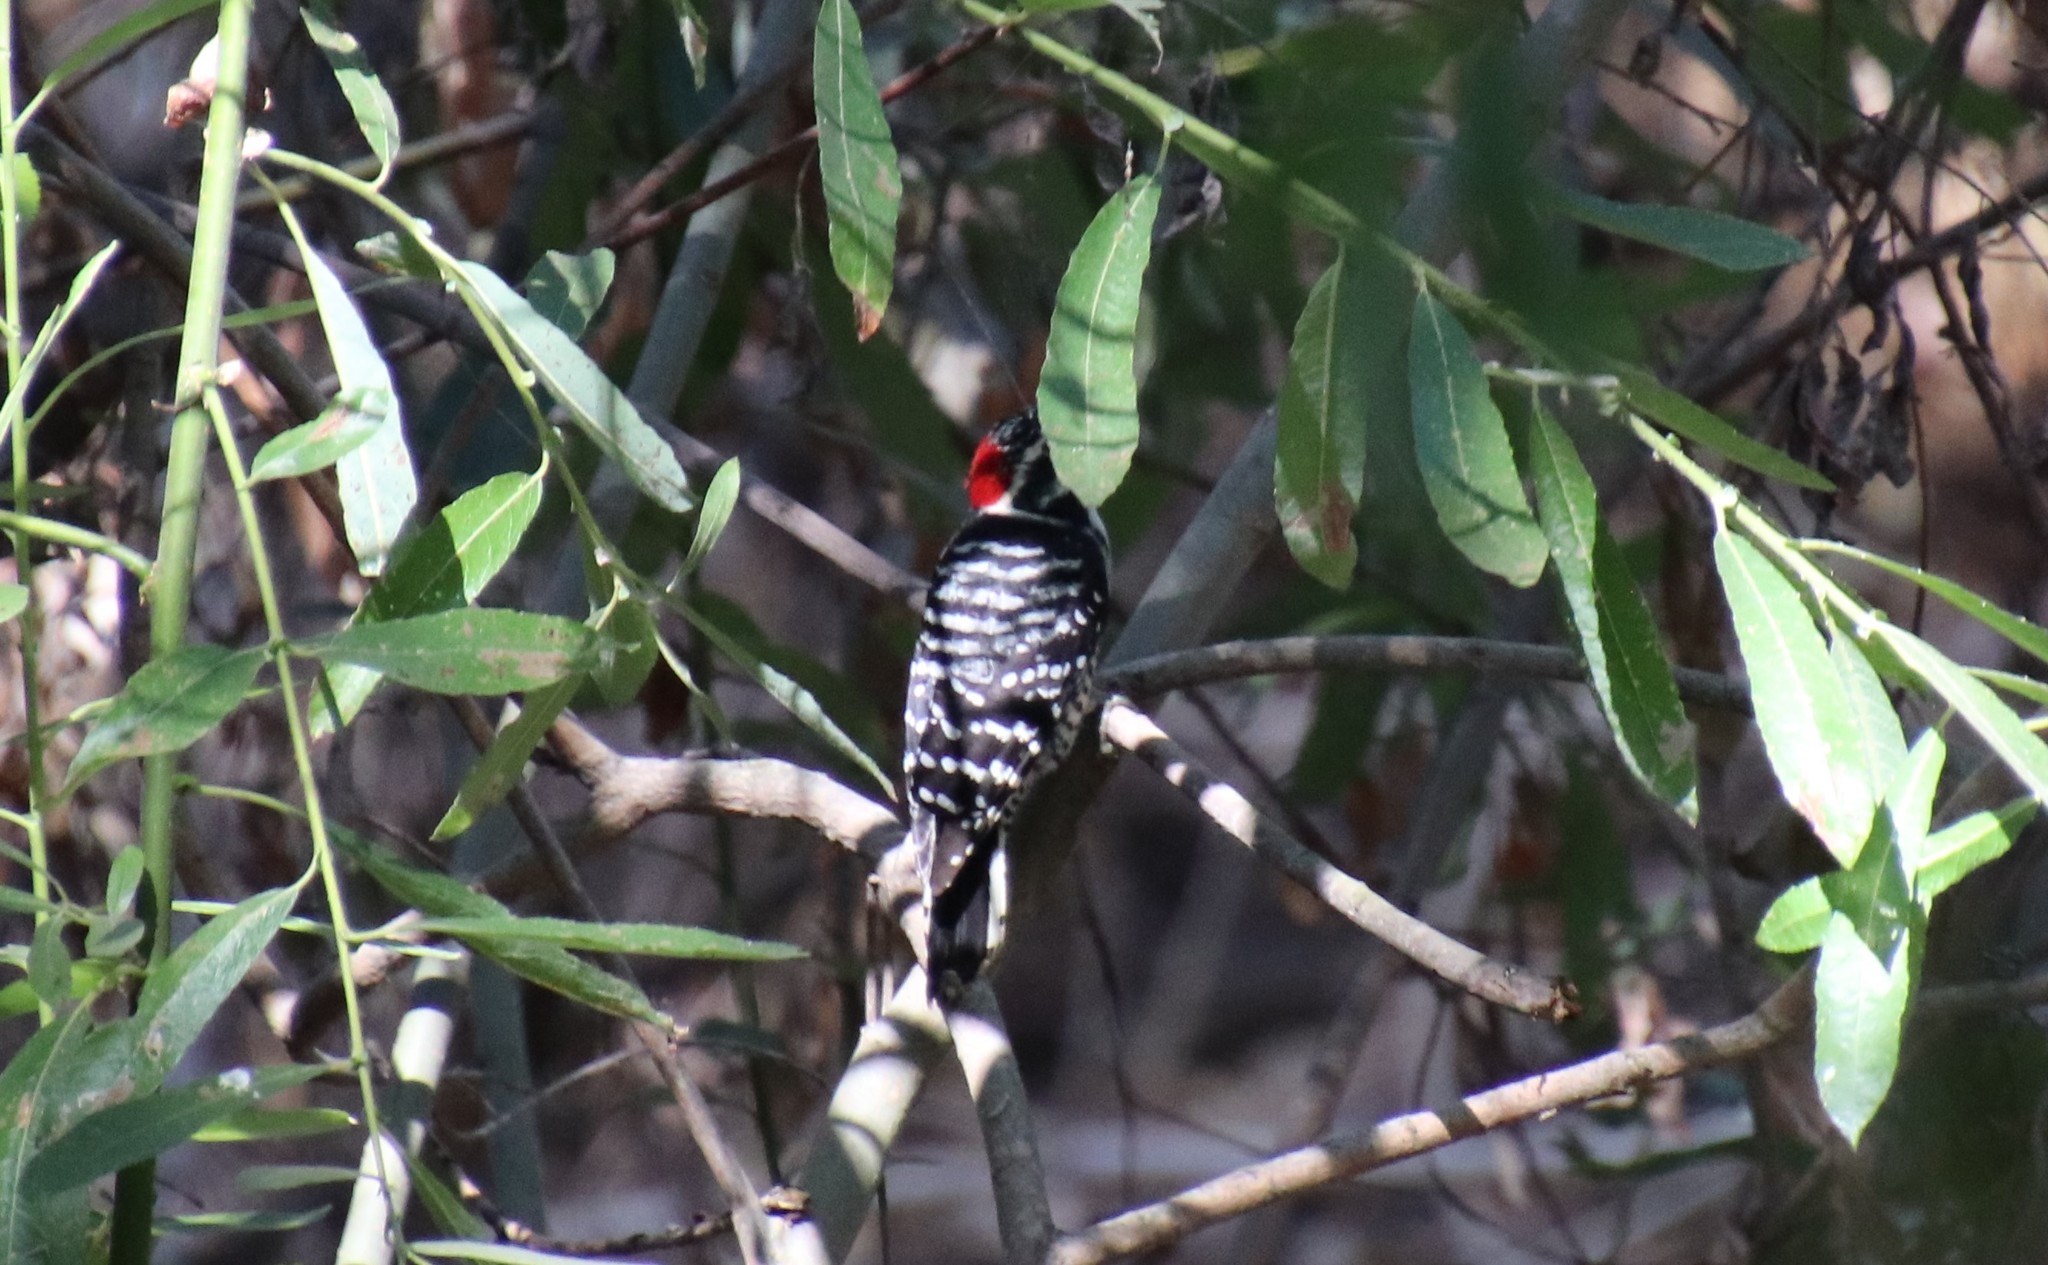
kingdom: Animalia
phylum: Chordata
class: Aves
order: Piciformes
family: Picidae
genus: Dryobates
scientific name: Dryobates nuttallii
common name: Nuttall's woodpecker
